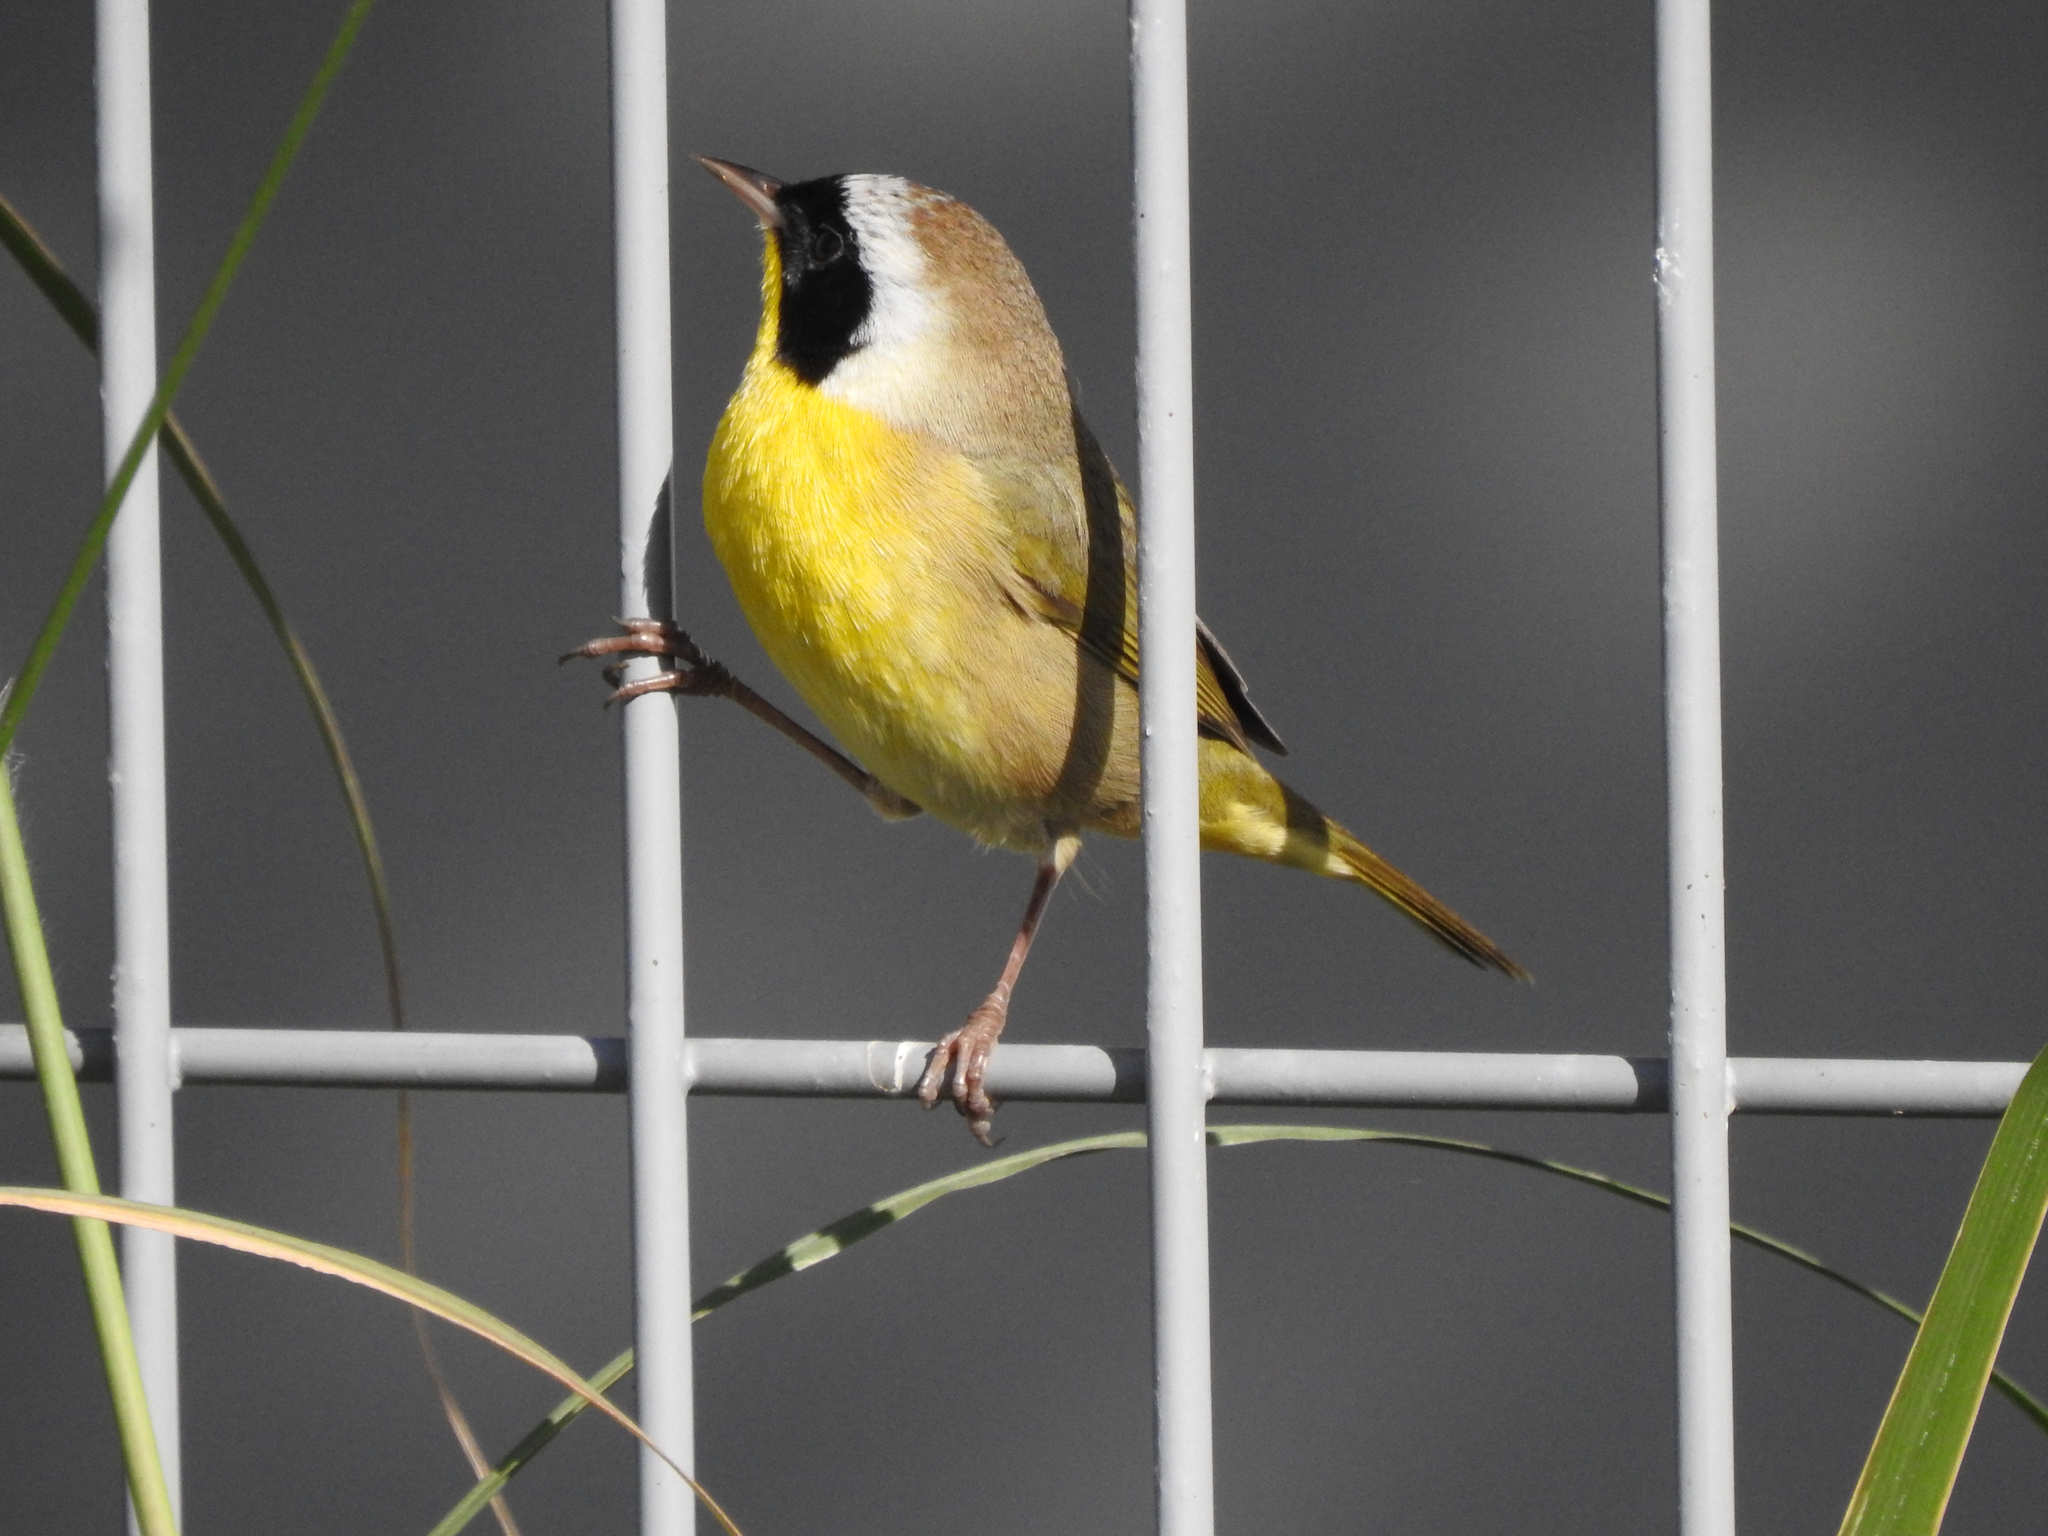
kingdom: Animalia
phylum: Chordata
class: Aves
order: Passeriformes
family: Parulidae
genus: Geothlypis
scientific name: Geothlypis trichas
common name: Common yellowthroat
